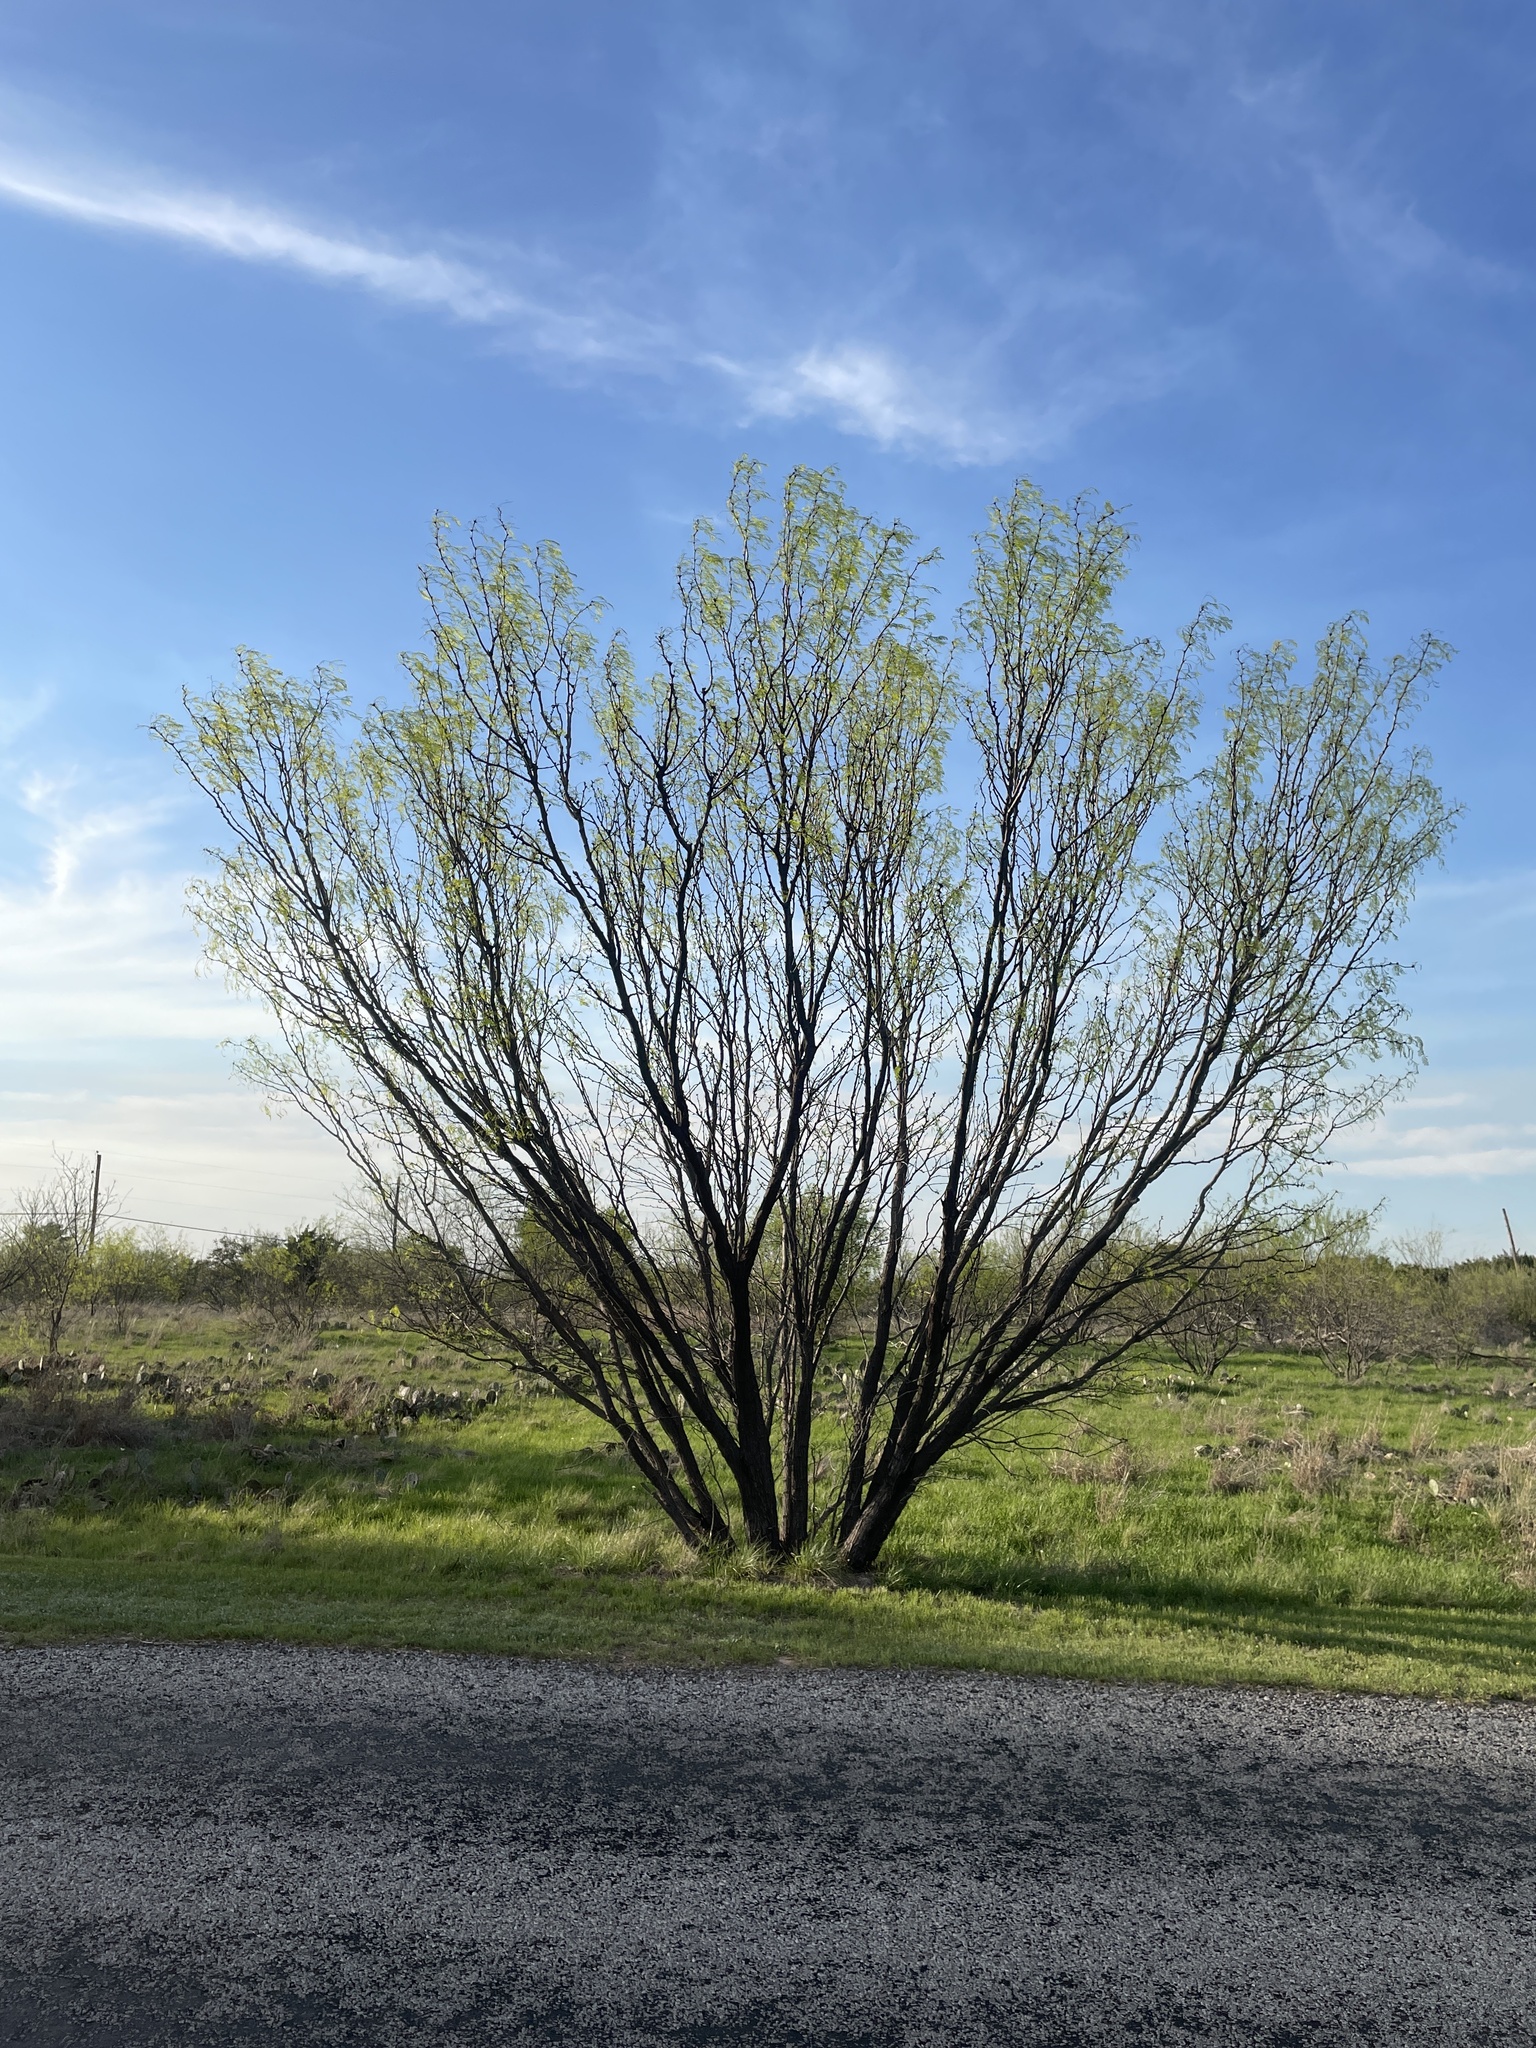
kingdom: Plantae
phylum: Tracheophyta
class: Magnoliopsida
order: Fabales
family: Fabaceae
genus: Prosopis
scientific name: Prosopis glandulosa
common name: Honey mesquite
